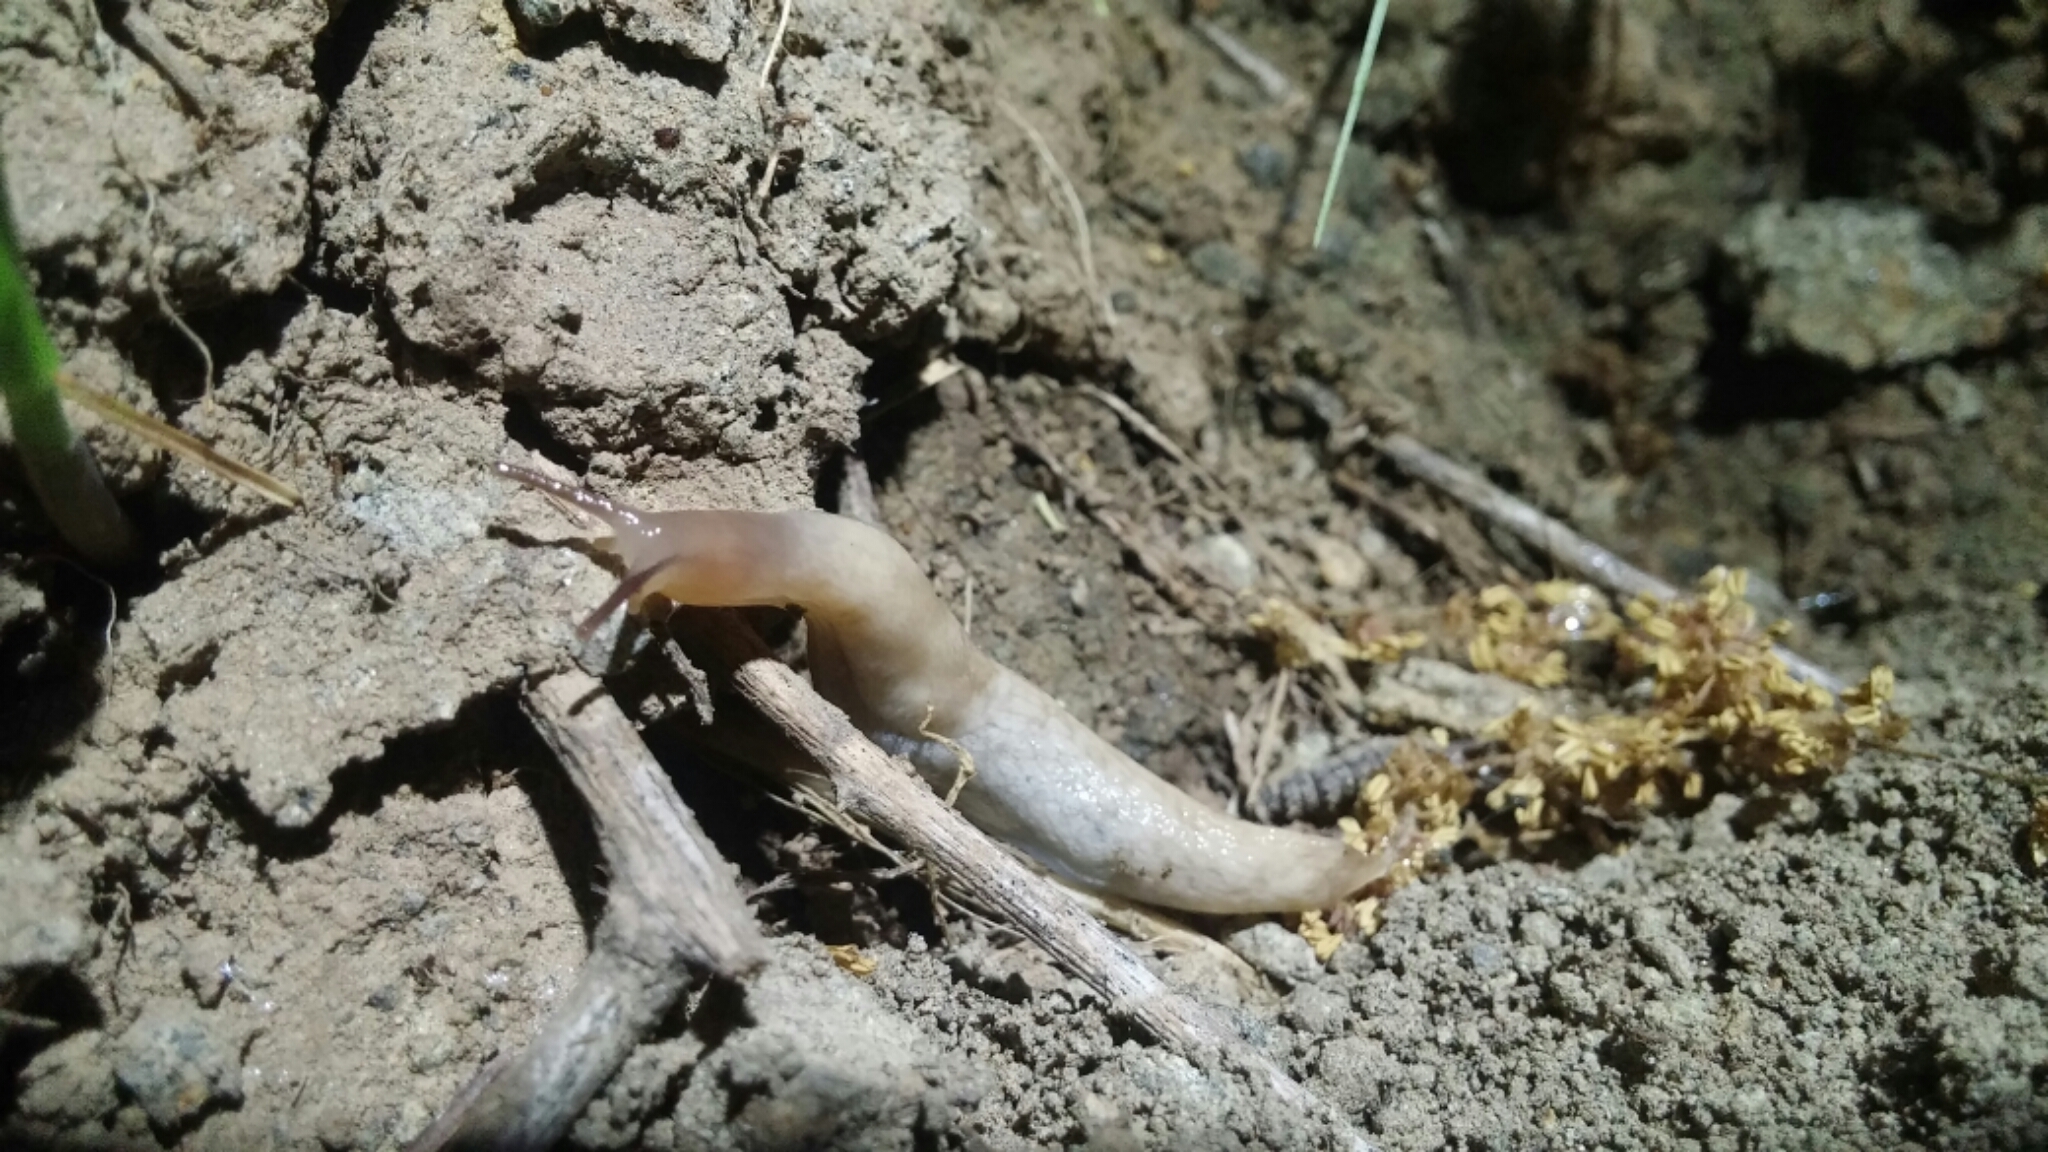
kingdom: Animalia
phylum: Mollusca
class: Gastropoda
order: Stylommatophora
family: Agriolimacidae
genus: Deroceras
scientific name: Deroceras reticulatum
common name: Gray field slug
